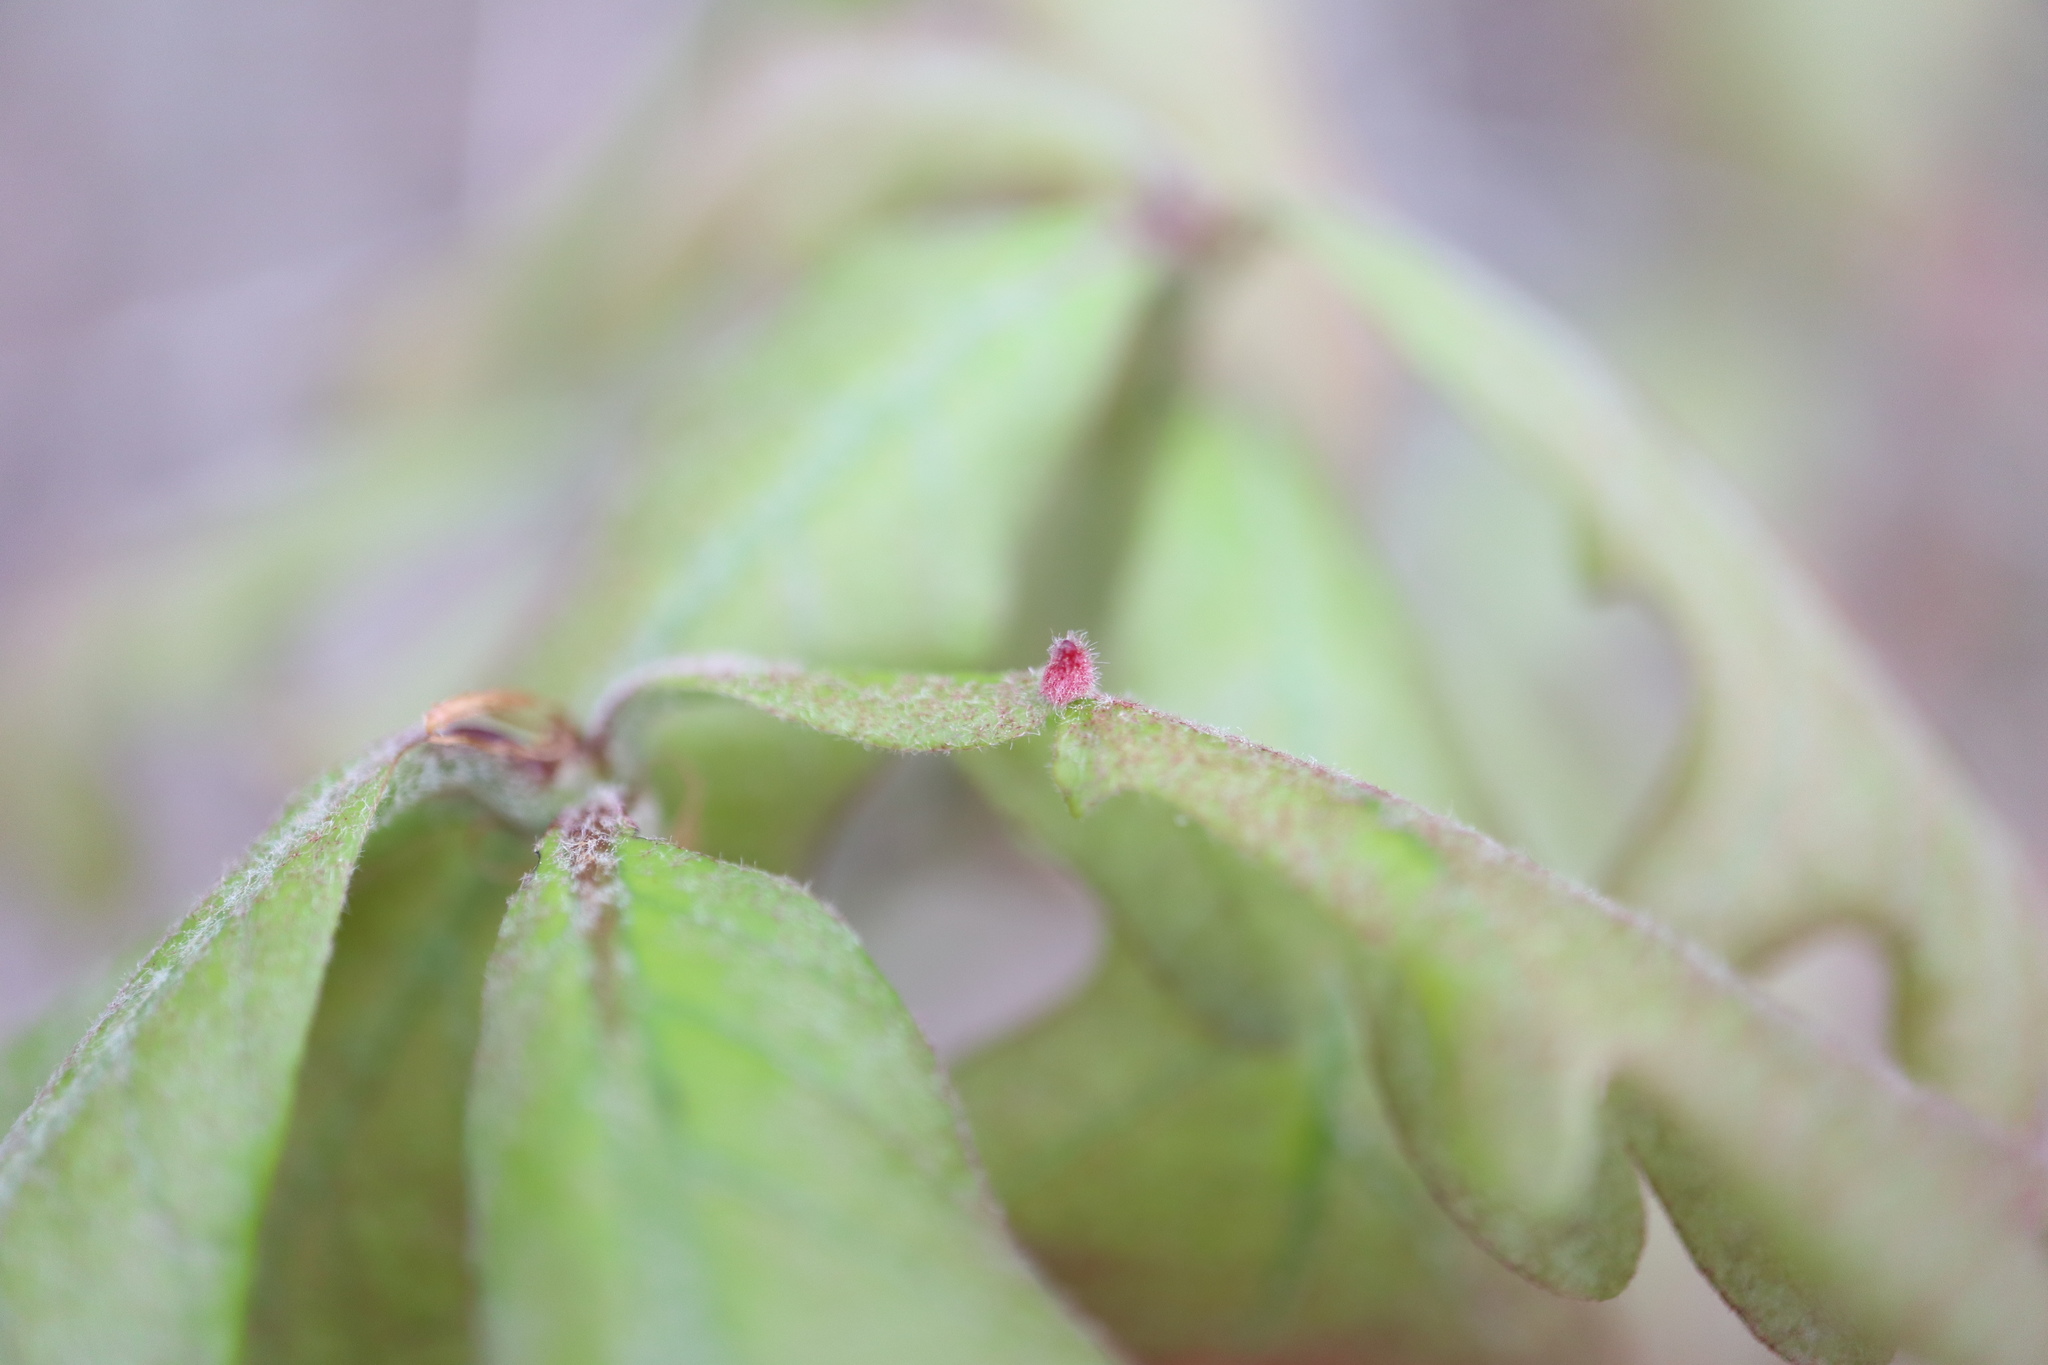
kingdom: Animalia
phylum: Arthropoda
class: Insecta
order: Hymenoptera
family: Cynipidae
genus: Andricus
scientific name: Andricus
